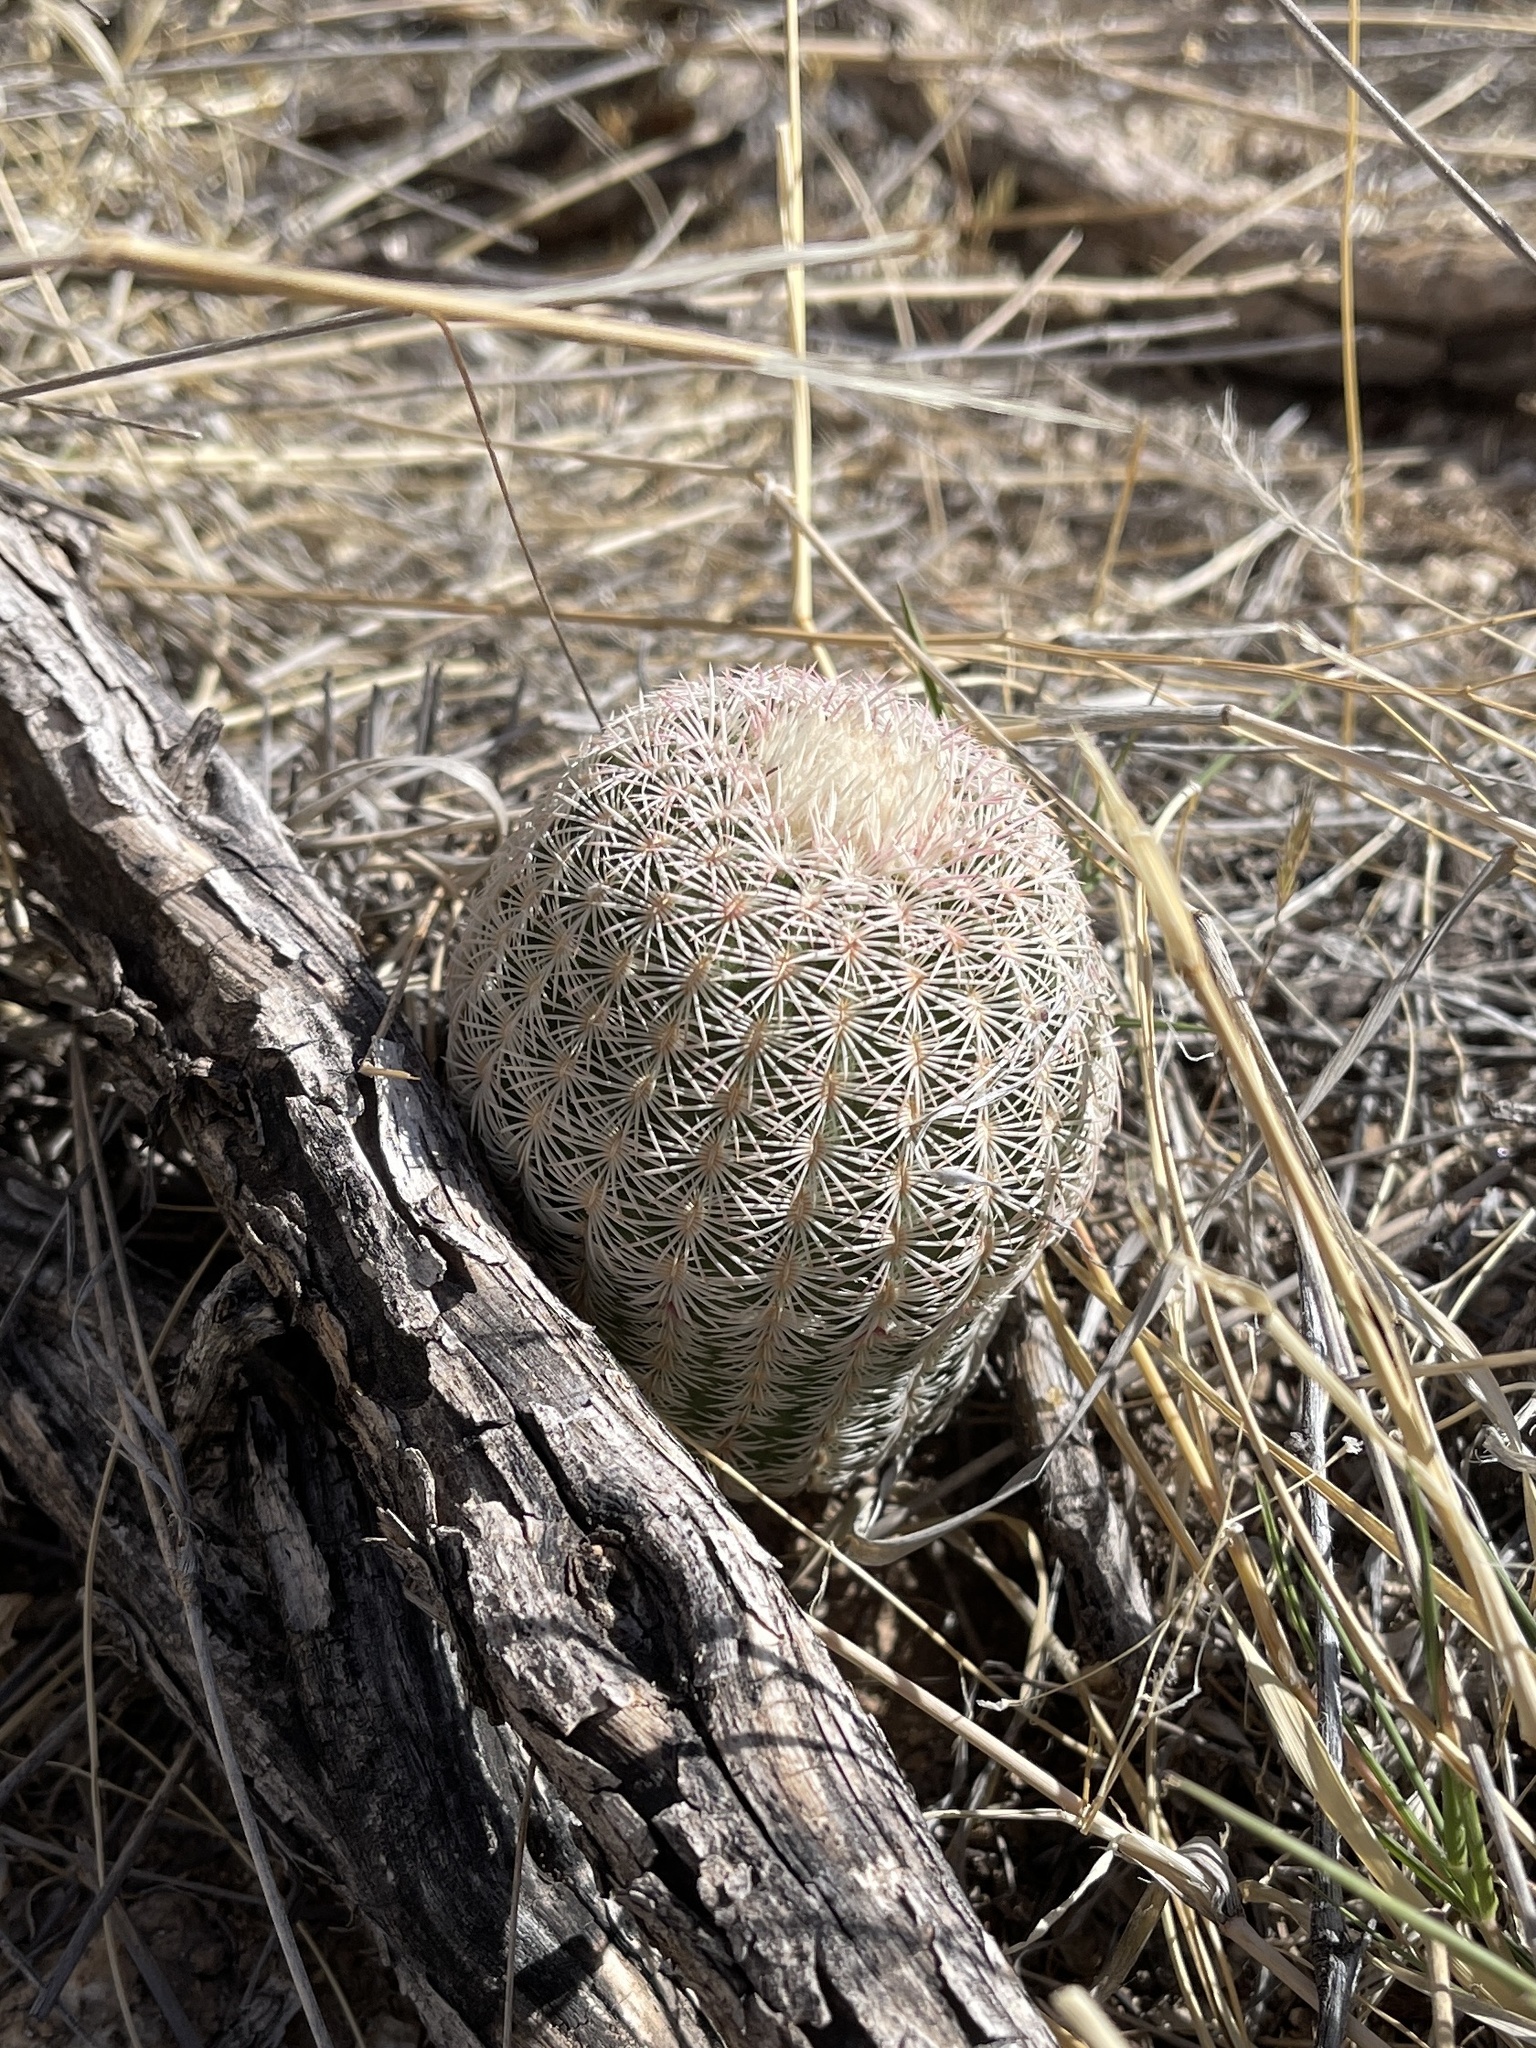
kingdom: Plantae
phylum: Tracheophyta
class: Magnoliopsida
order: Caryophyllales
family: Cactaceae
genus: Echinocereus
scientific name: Echinocereus rigidissimus
